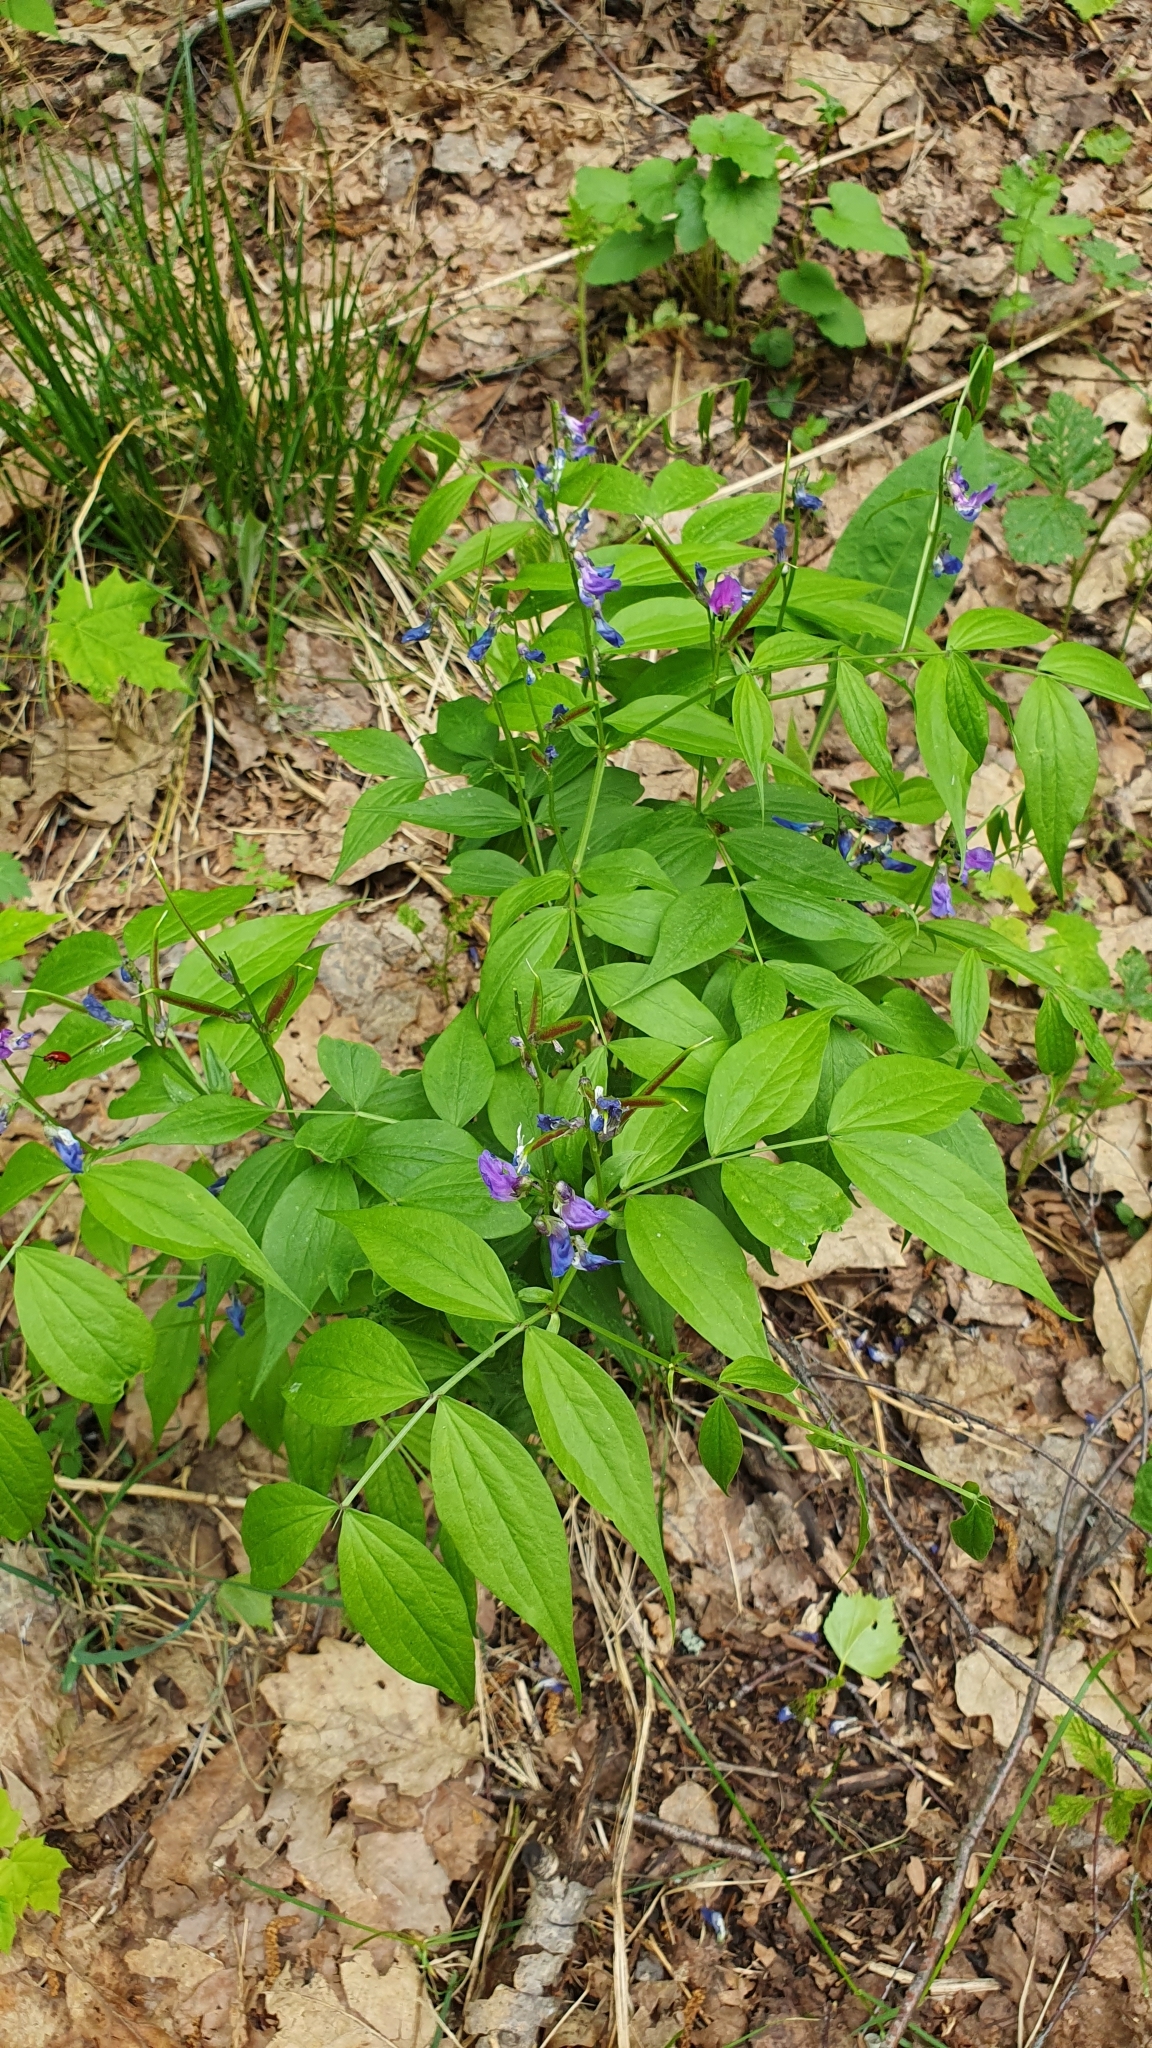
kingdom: Plantae
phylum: Tracheophyta
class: Magnoliopsida
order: Fabales
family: Fabaceae
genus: Lathyrus
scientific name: Lathyrus vernus
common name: Spring pea
